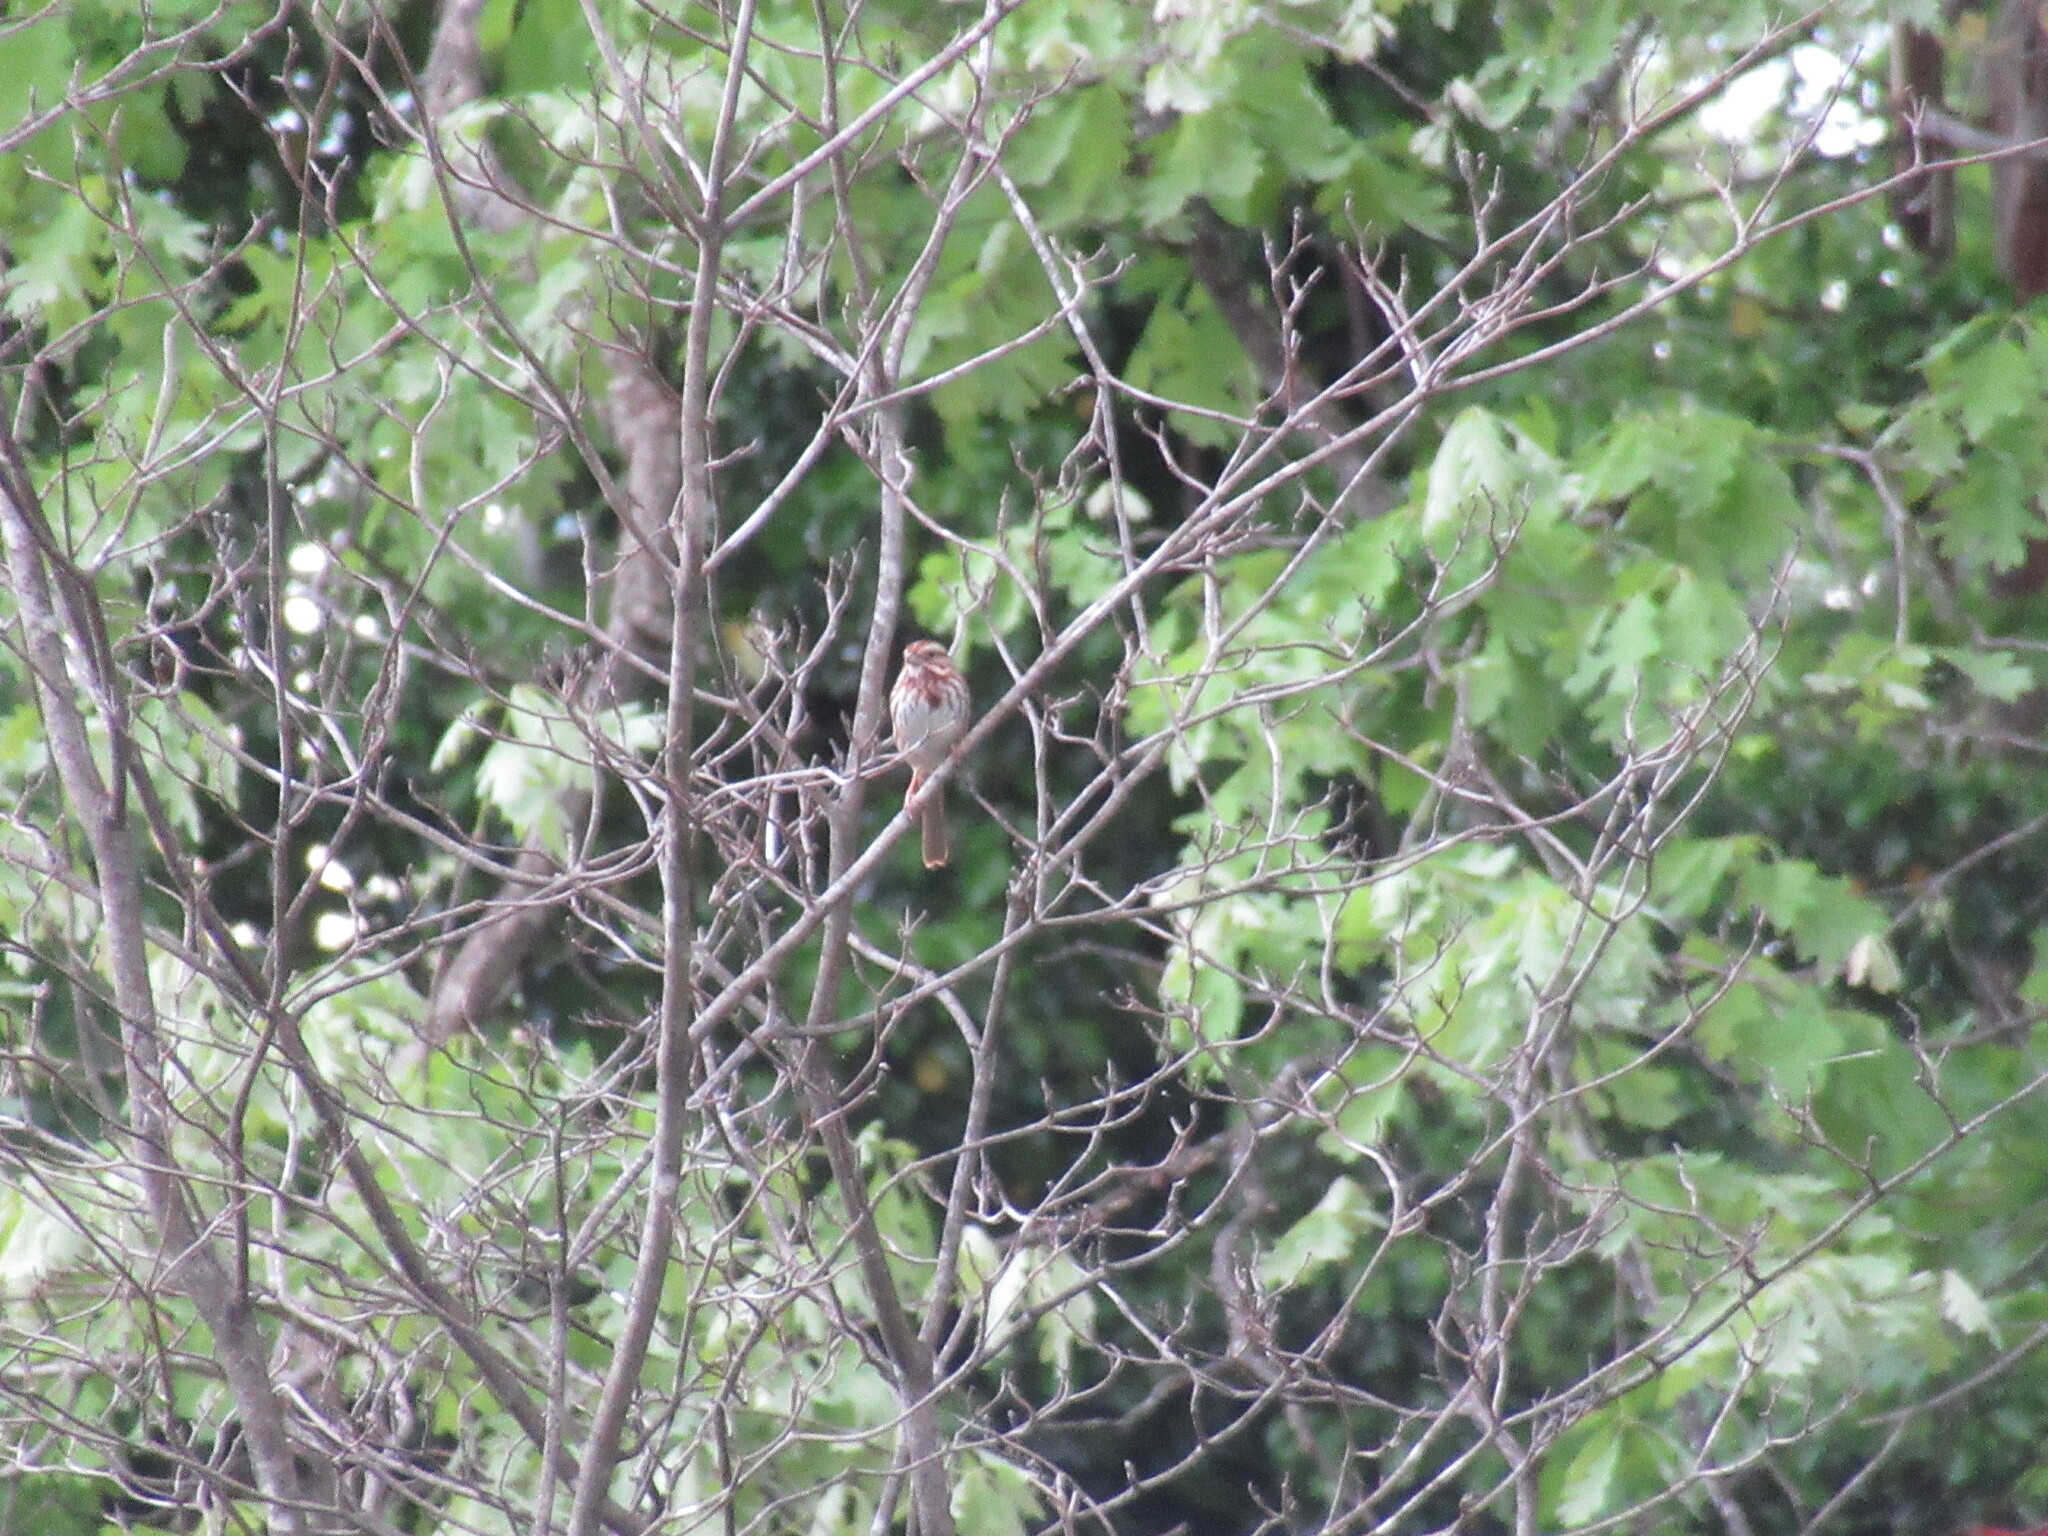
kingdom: Animalia
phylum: Chordata
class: Aves
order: Passeriformes
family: Passerellidae
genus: Melospiza
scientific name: Melospiza melodia
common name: Song sparrow
